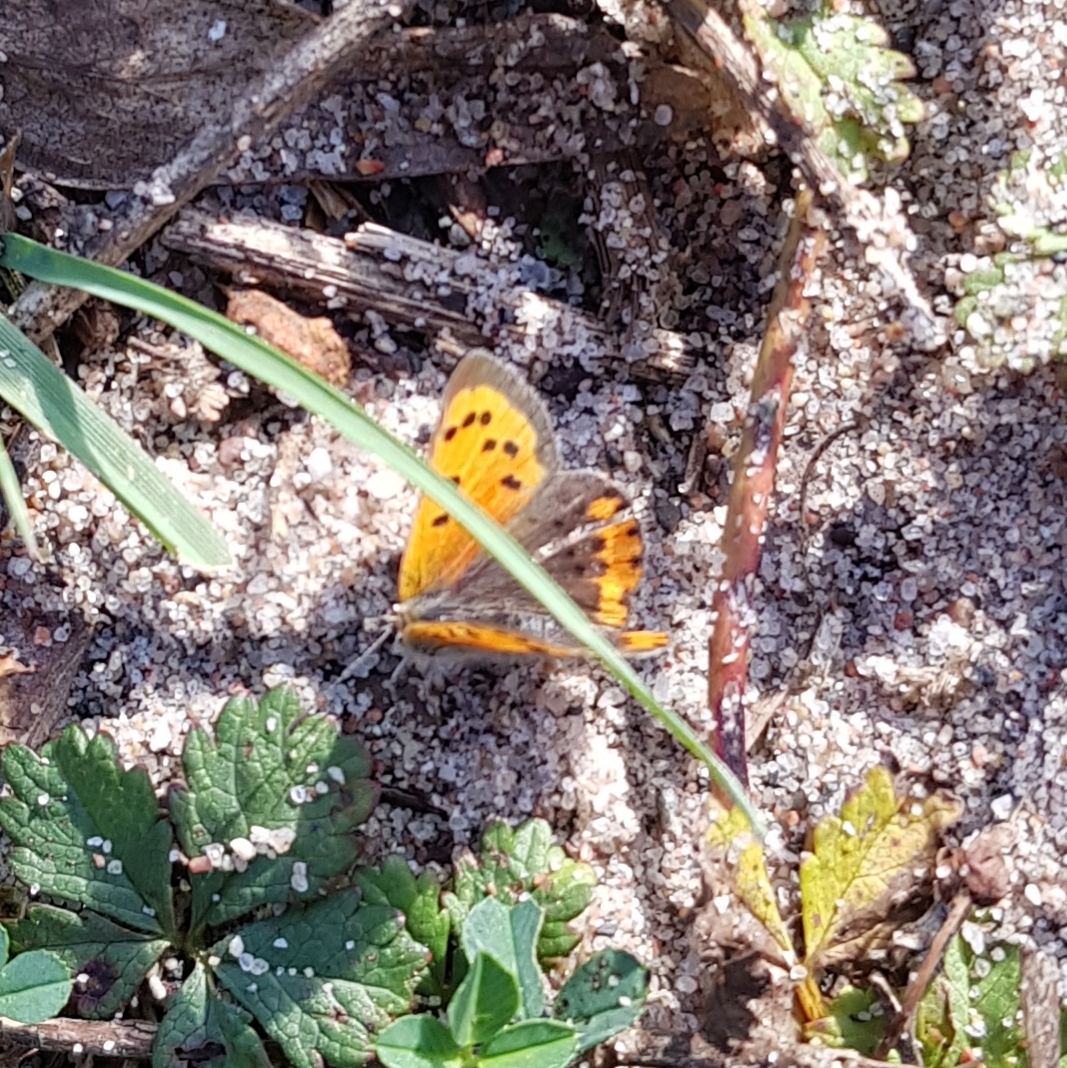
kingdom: Animalia
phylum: Arthropoda
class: Insecta
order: Lepidoptera
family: Lycaenidae
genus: Lycaena
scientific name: Lycaena phlaeas
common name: Small copper
